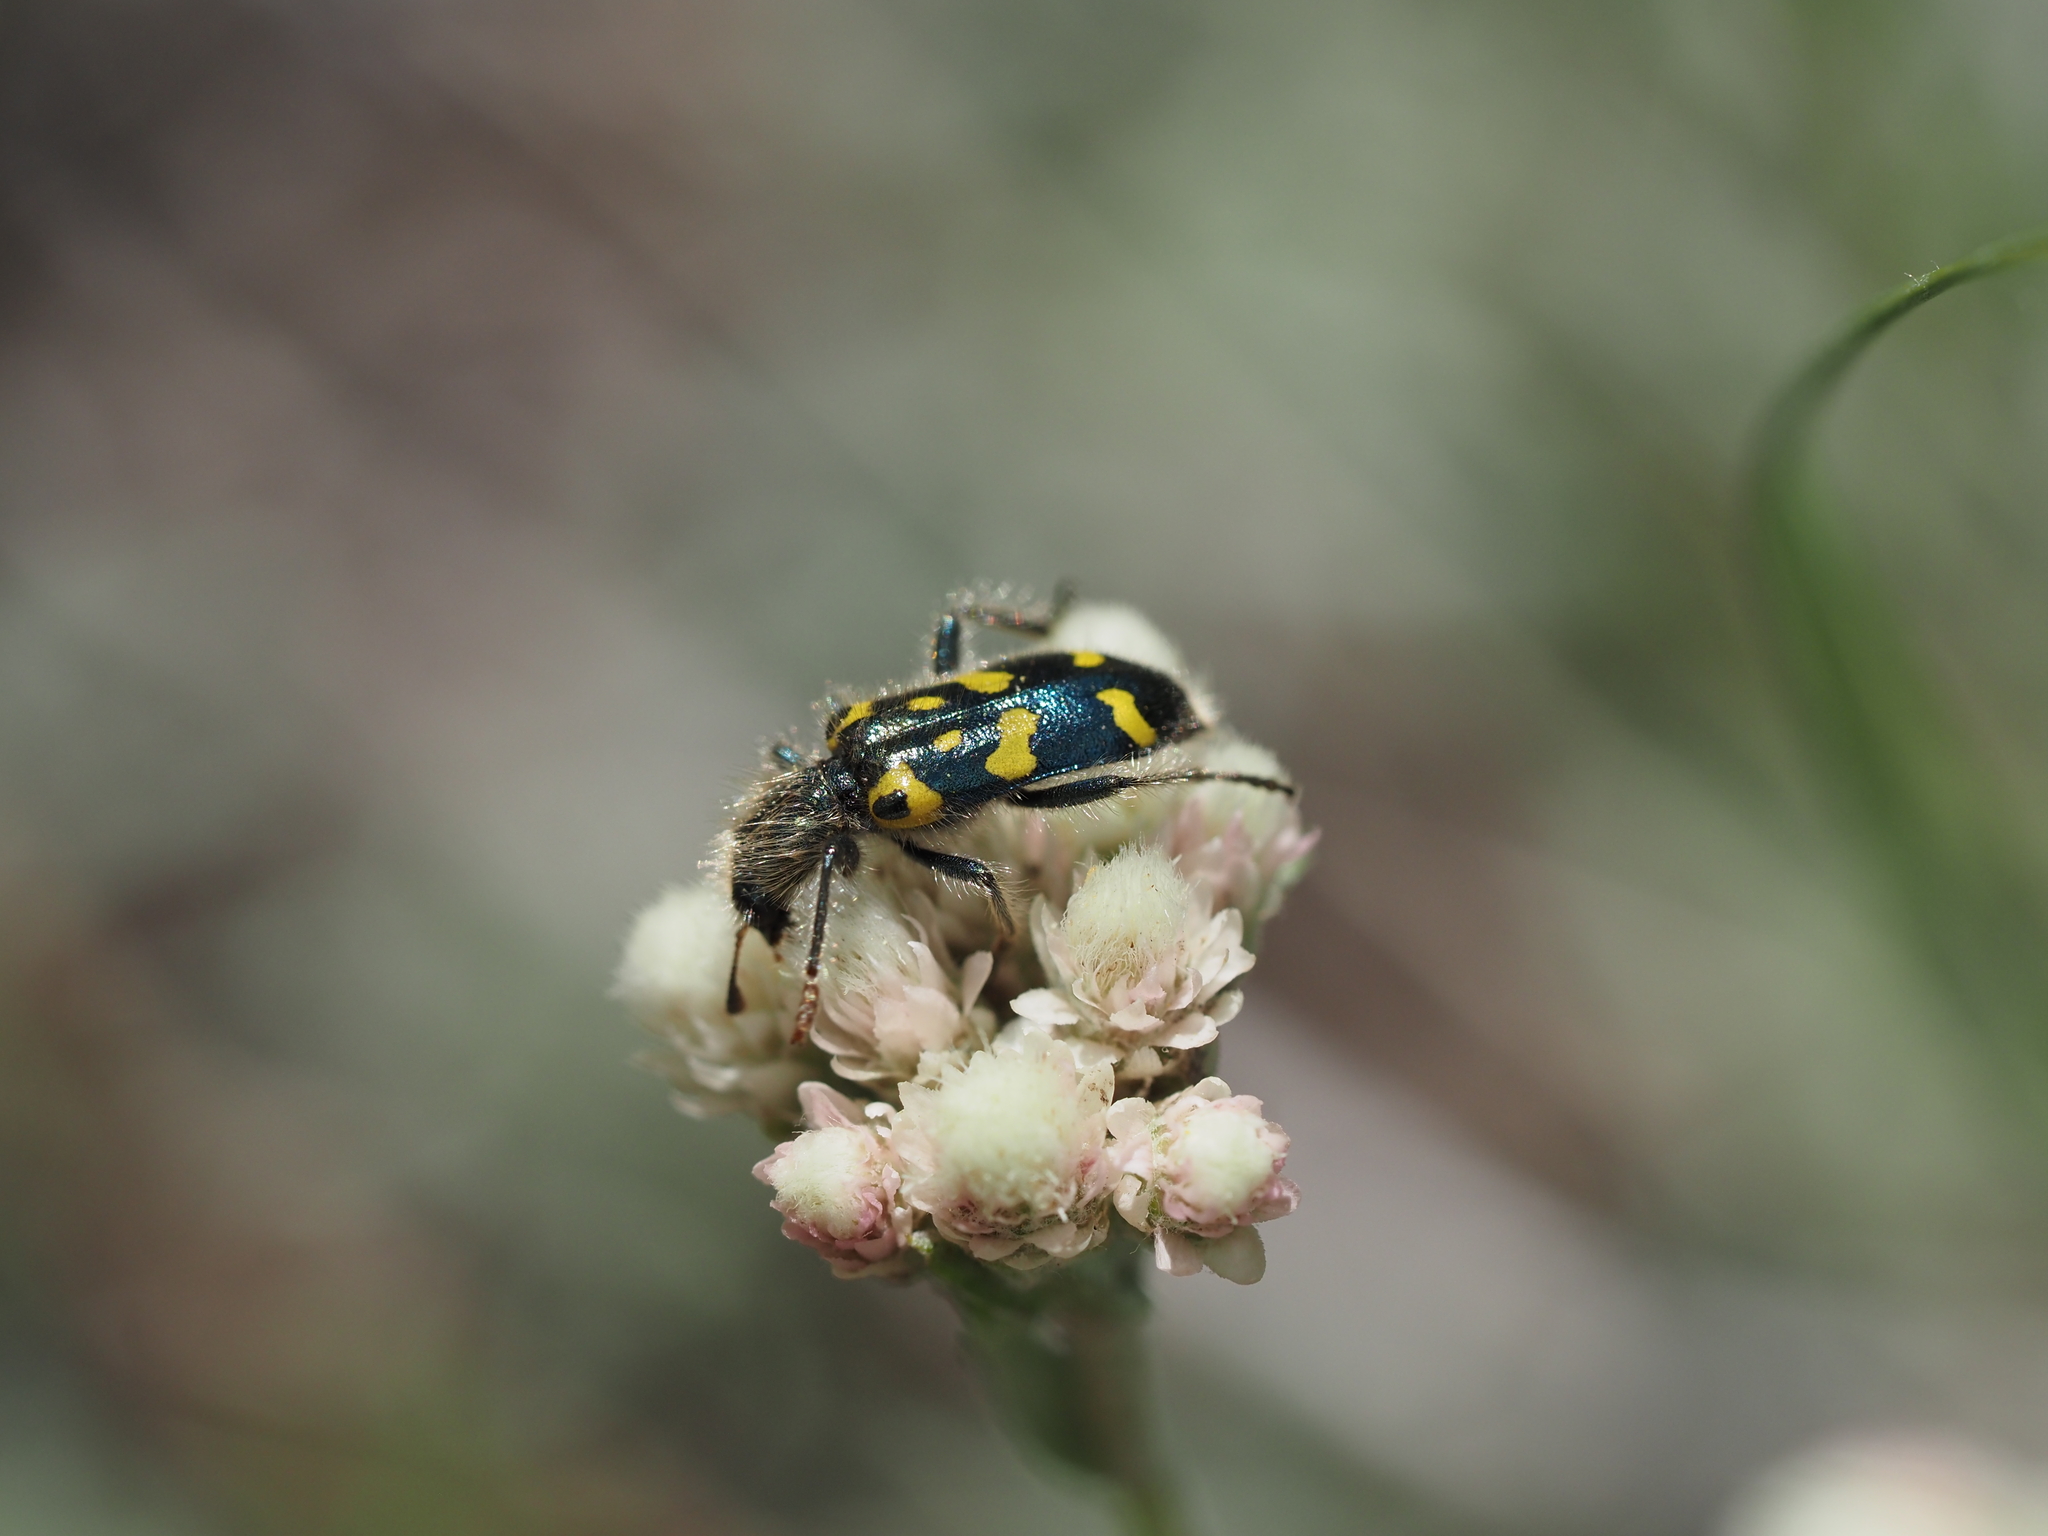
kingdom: Animalia
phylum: Arthropoda
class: Insecta
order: Coleoptera
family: Cleridae
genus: Trichodes
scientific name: Trichodes ornatus
